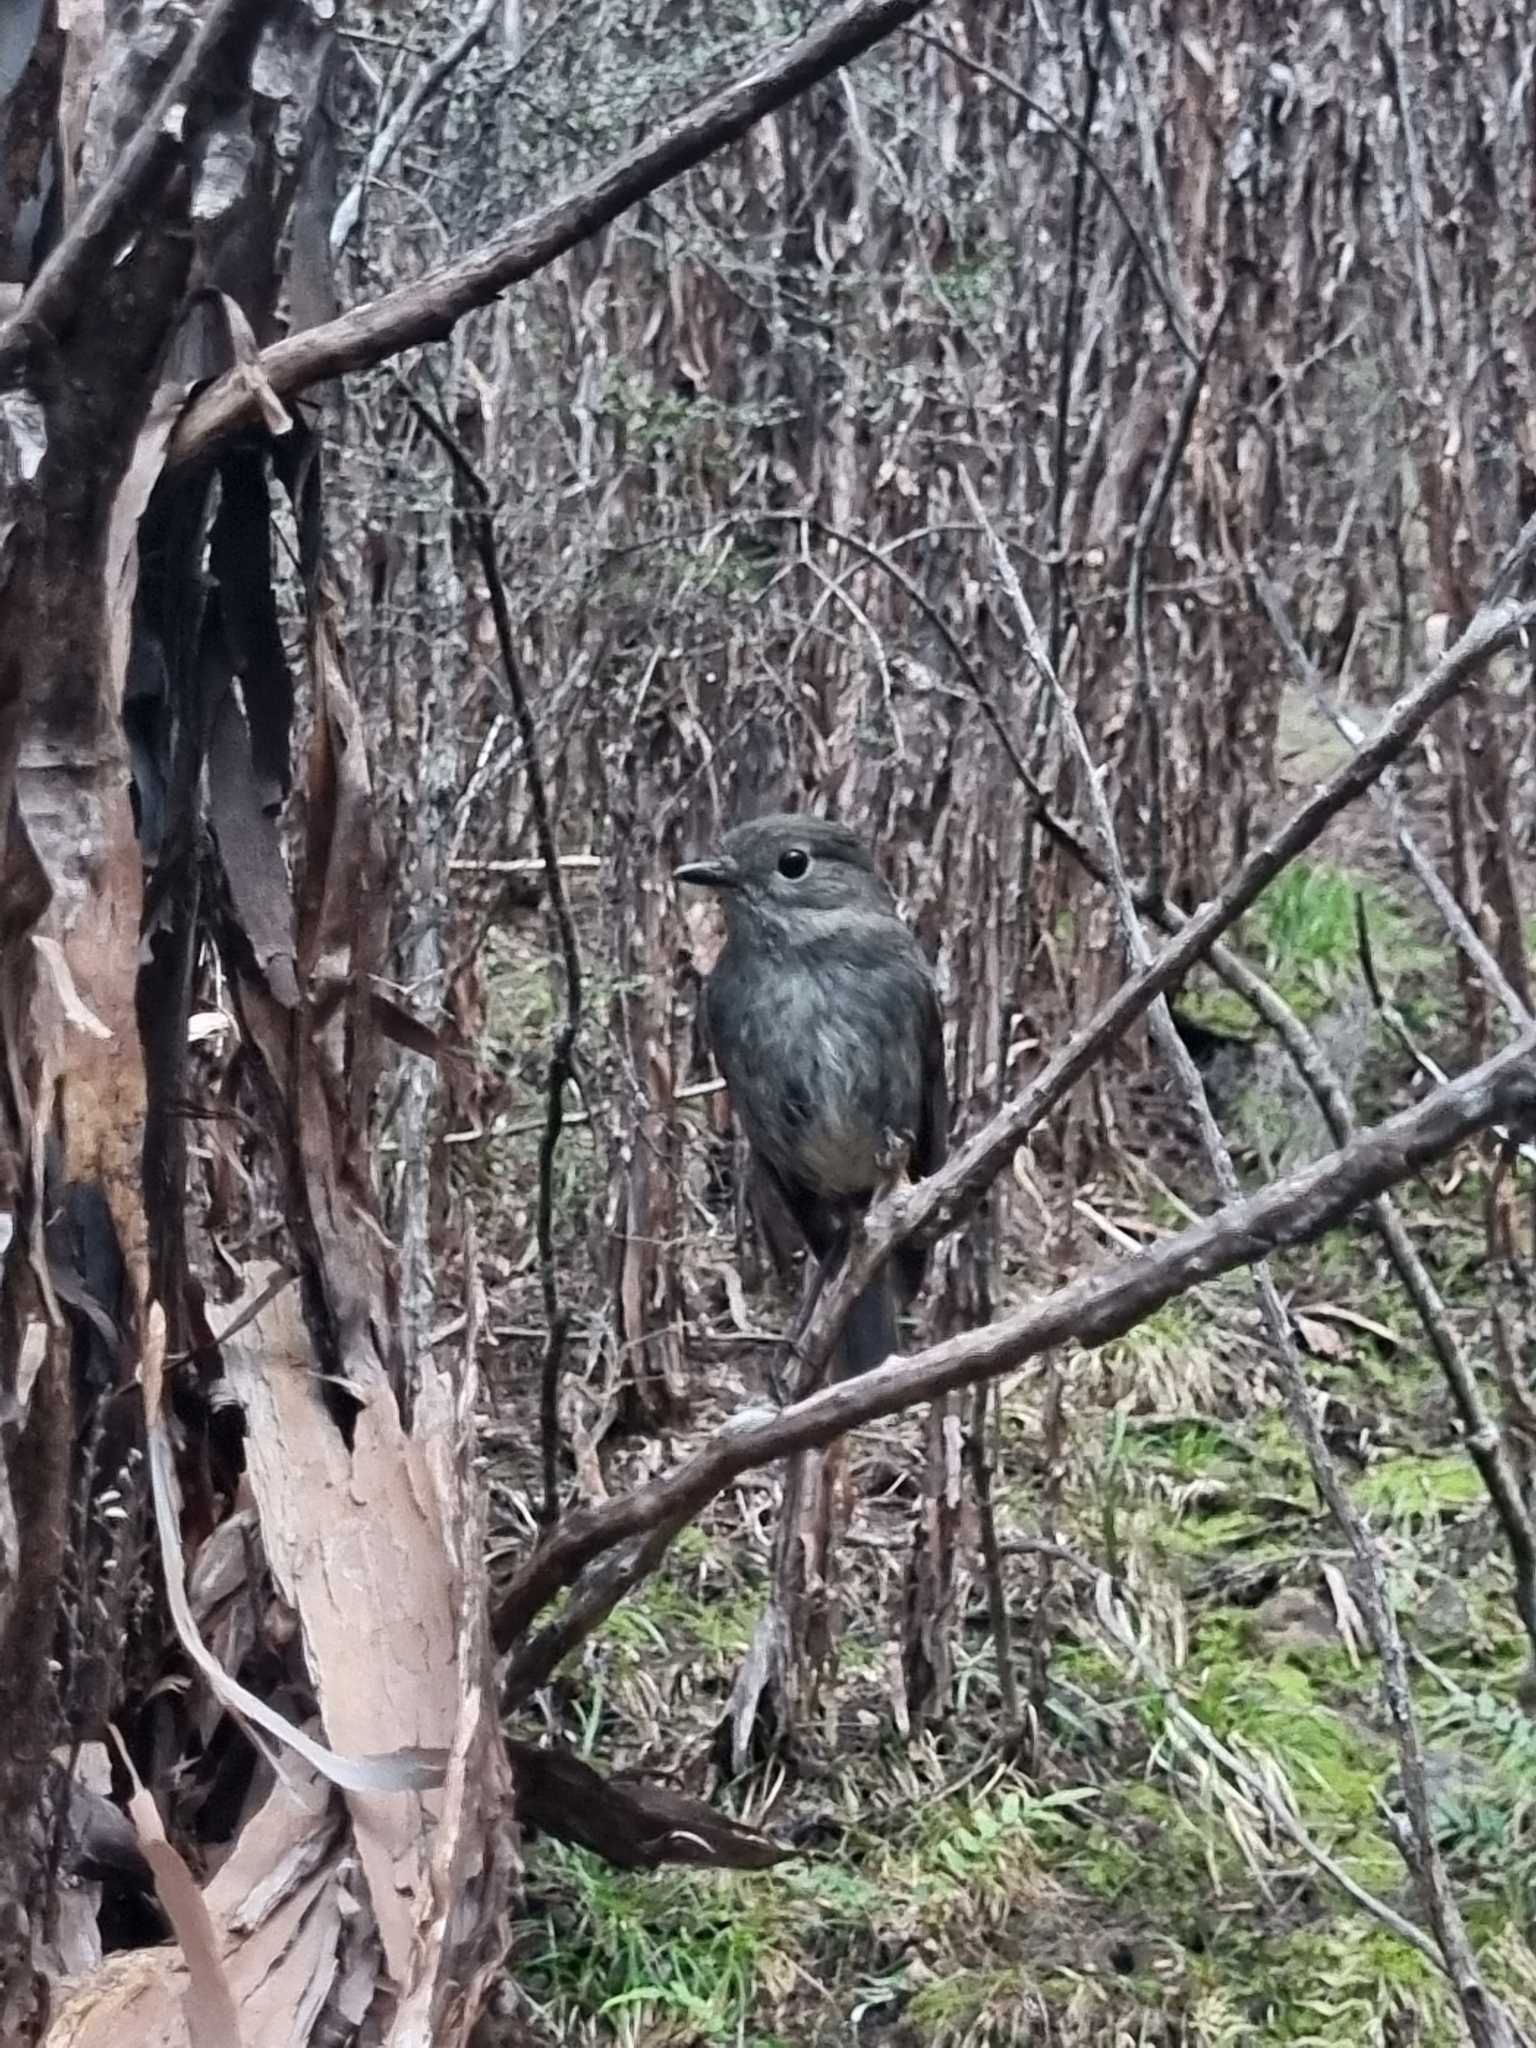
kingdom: Animalia
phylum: Chordata
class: Aves
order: Passeriformes
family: Petroicidae
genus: Petroica
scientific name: Petroica australis
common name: New zealand robin
